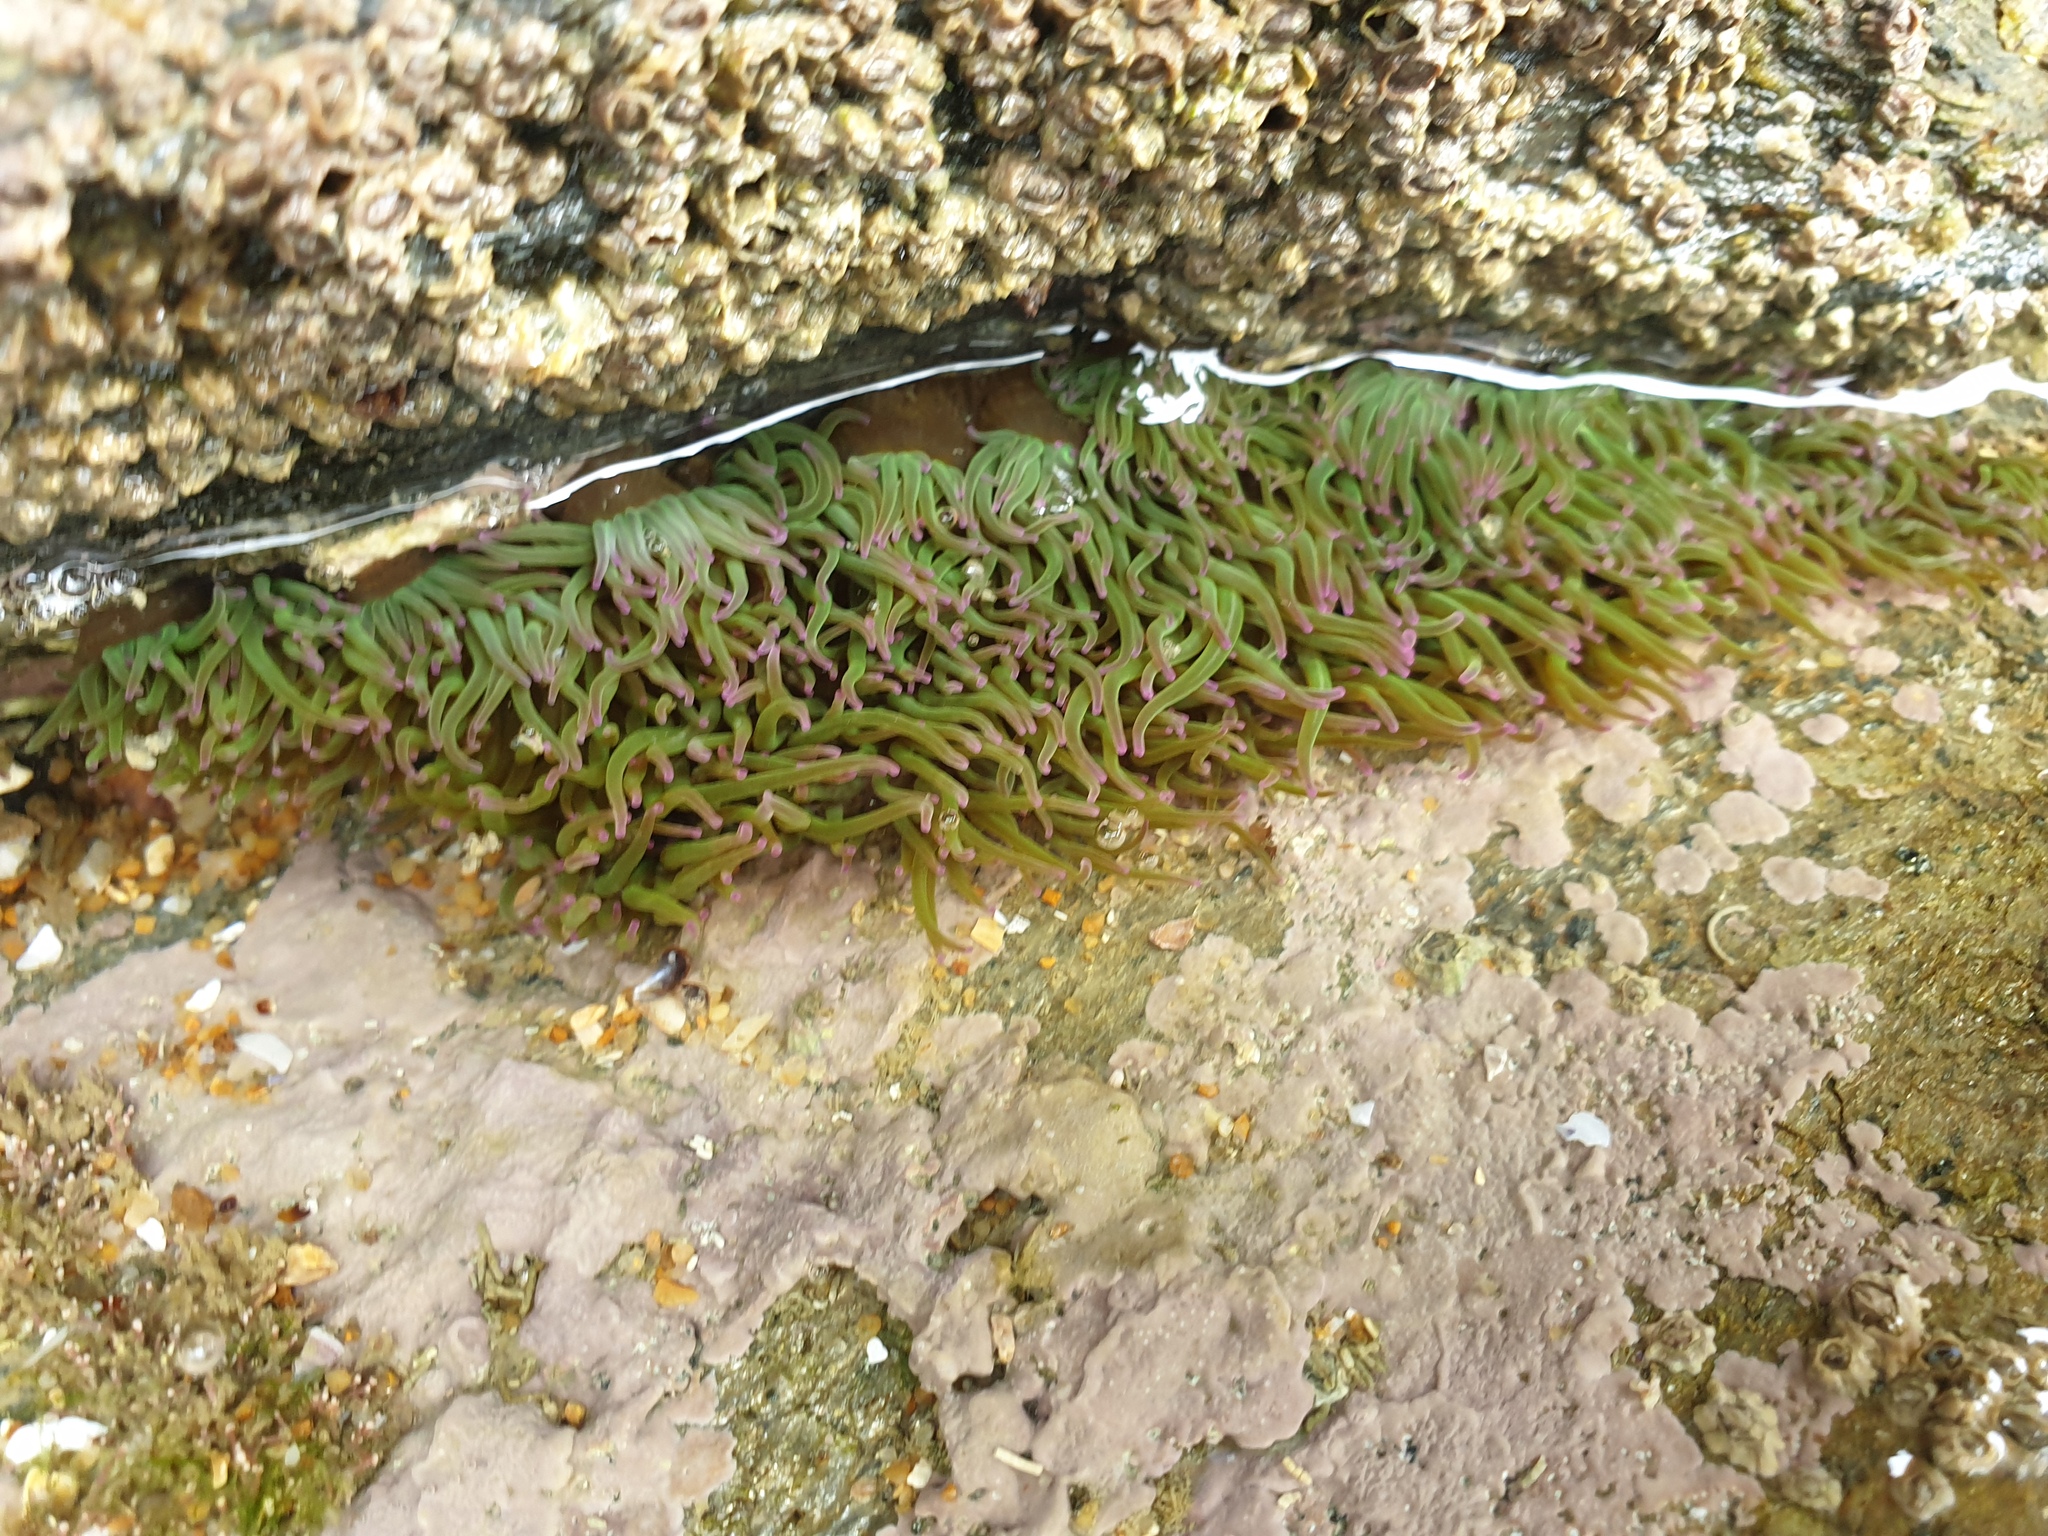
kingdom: Animalia
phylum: Cnidaria
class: Anthozoa
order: Actiniaria
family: Actiniidae
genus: Anemonia
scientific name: Anemonia viridis
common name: Snakelocks anemone
